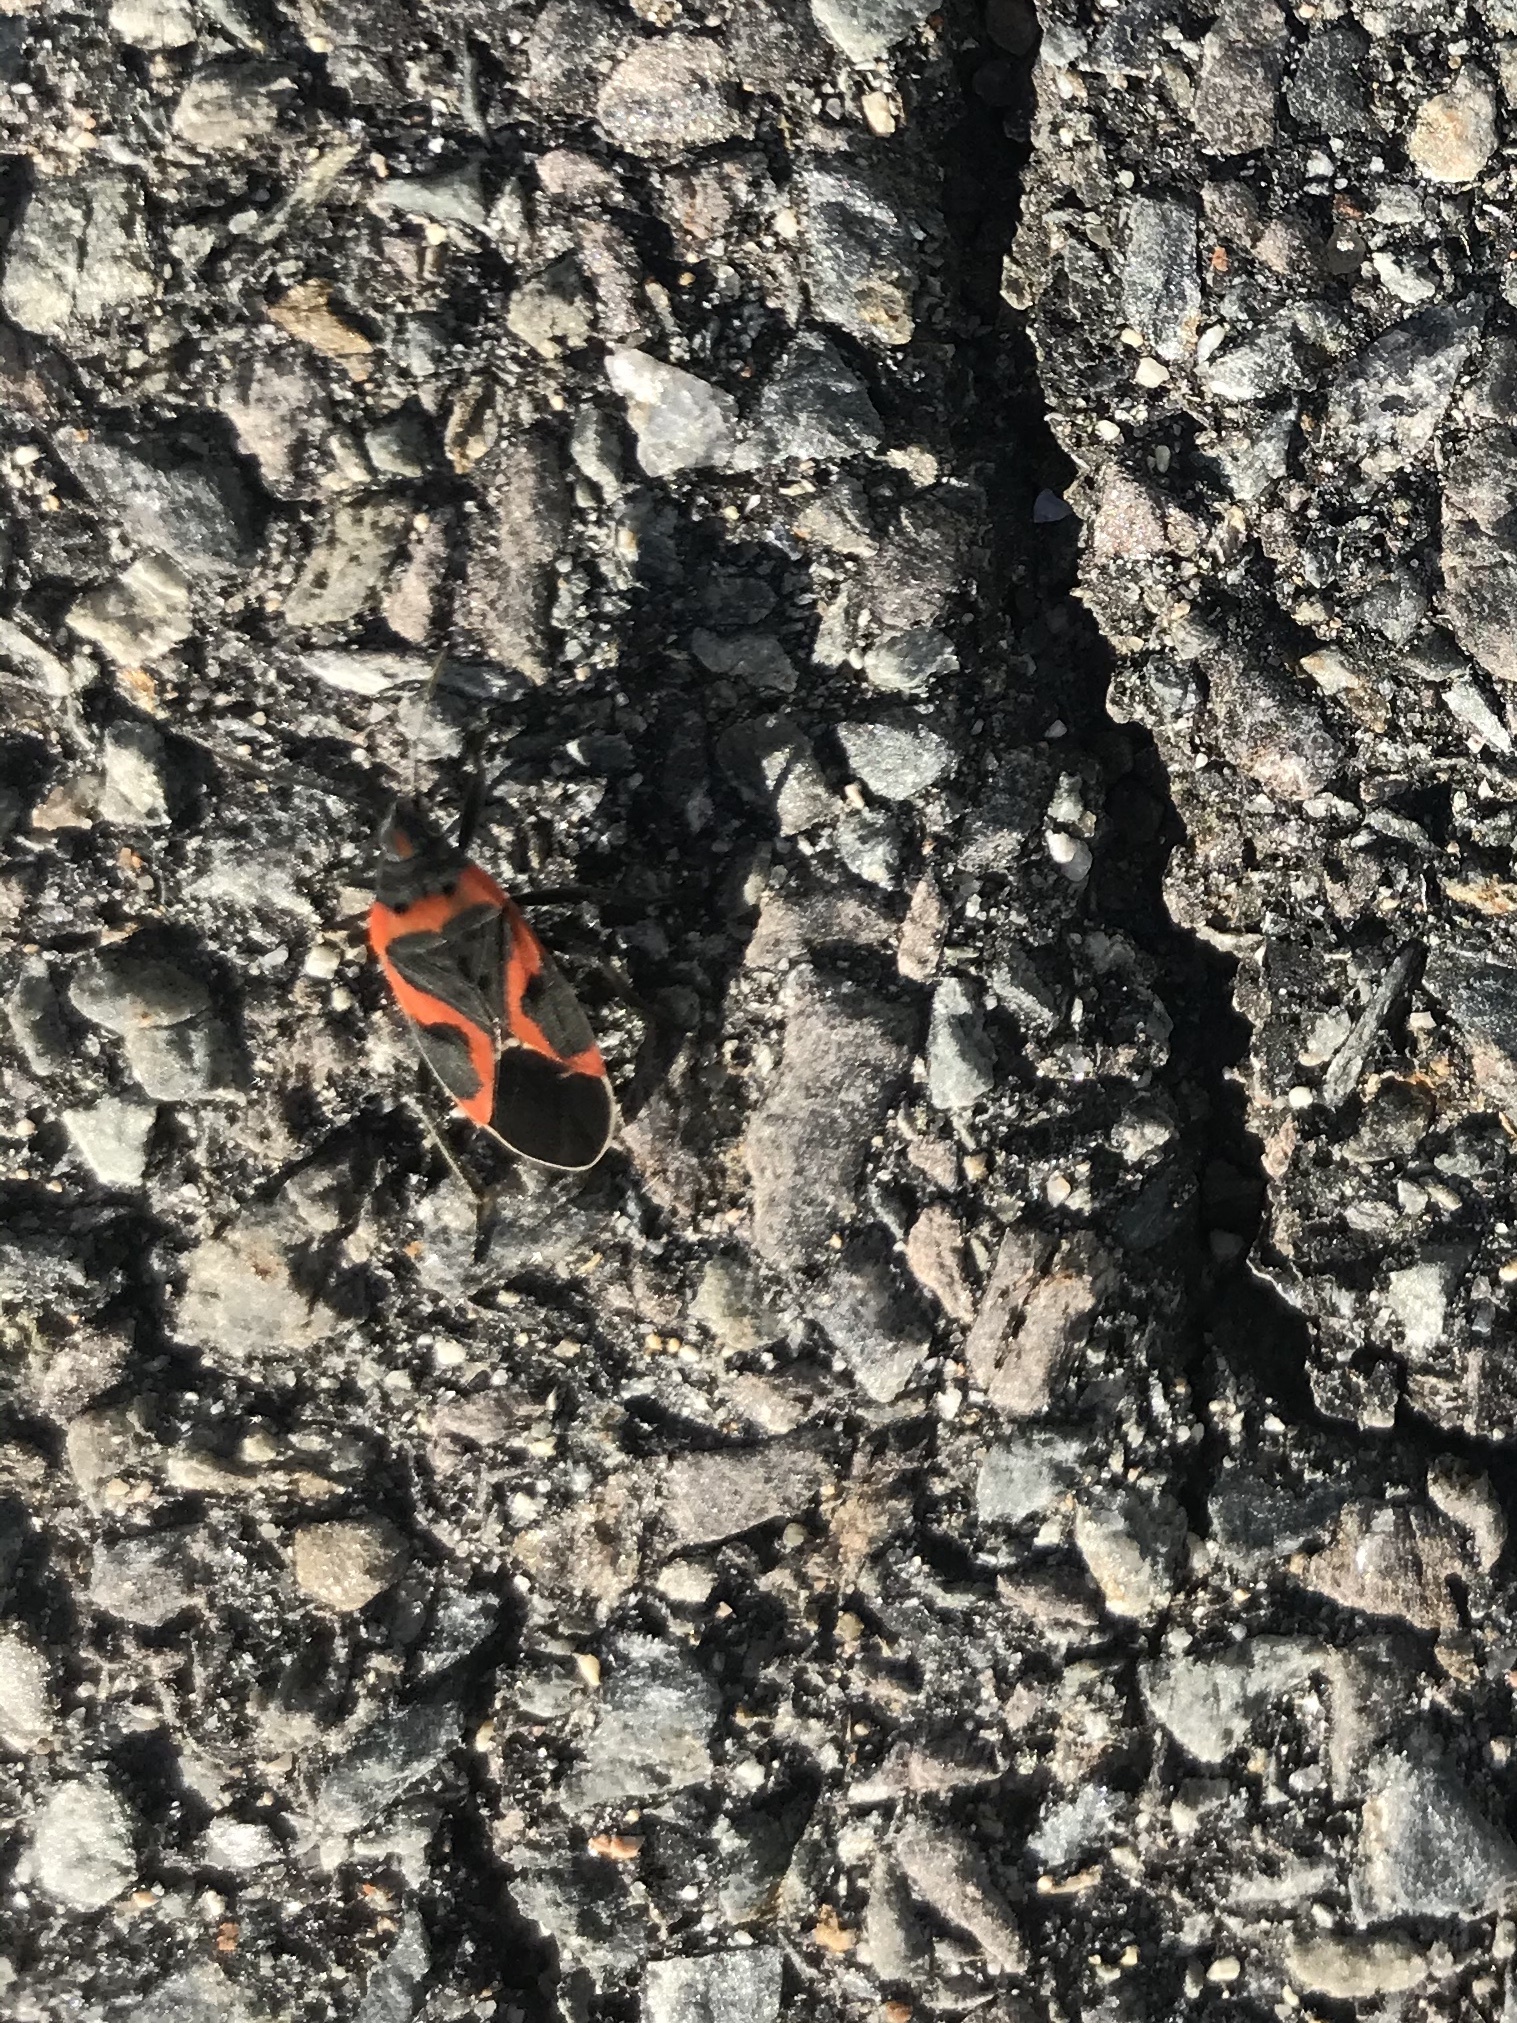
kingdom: Animalia
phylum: Arthropoda
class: Insecta
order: Hemiptera
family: Lygaeidae
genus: Lygaeus
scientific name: Lygaeus kalmii
